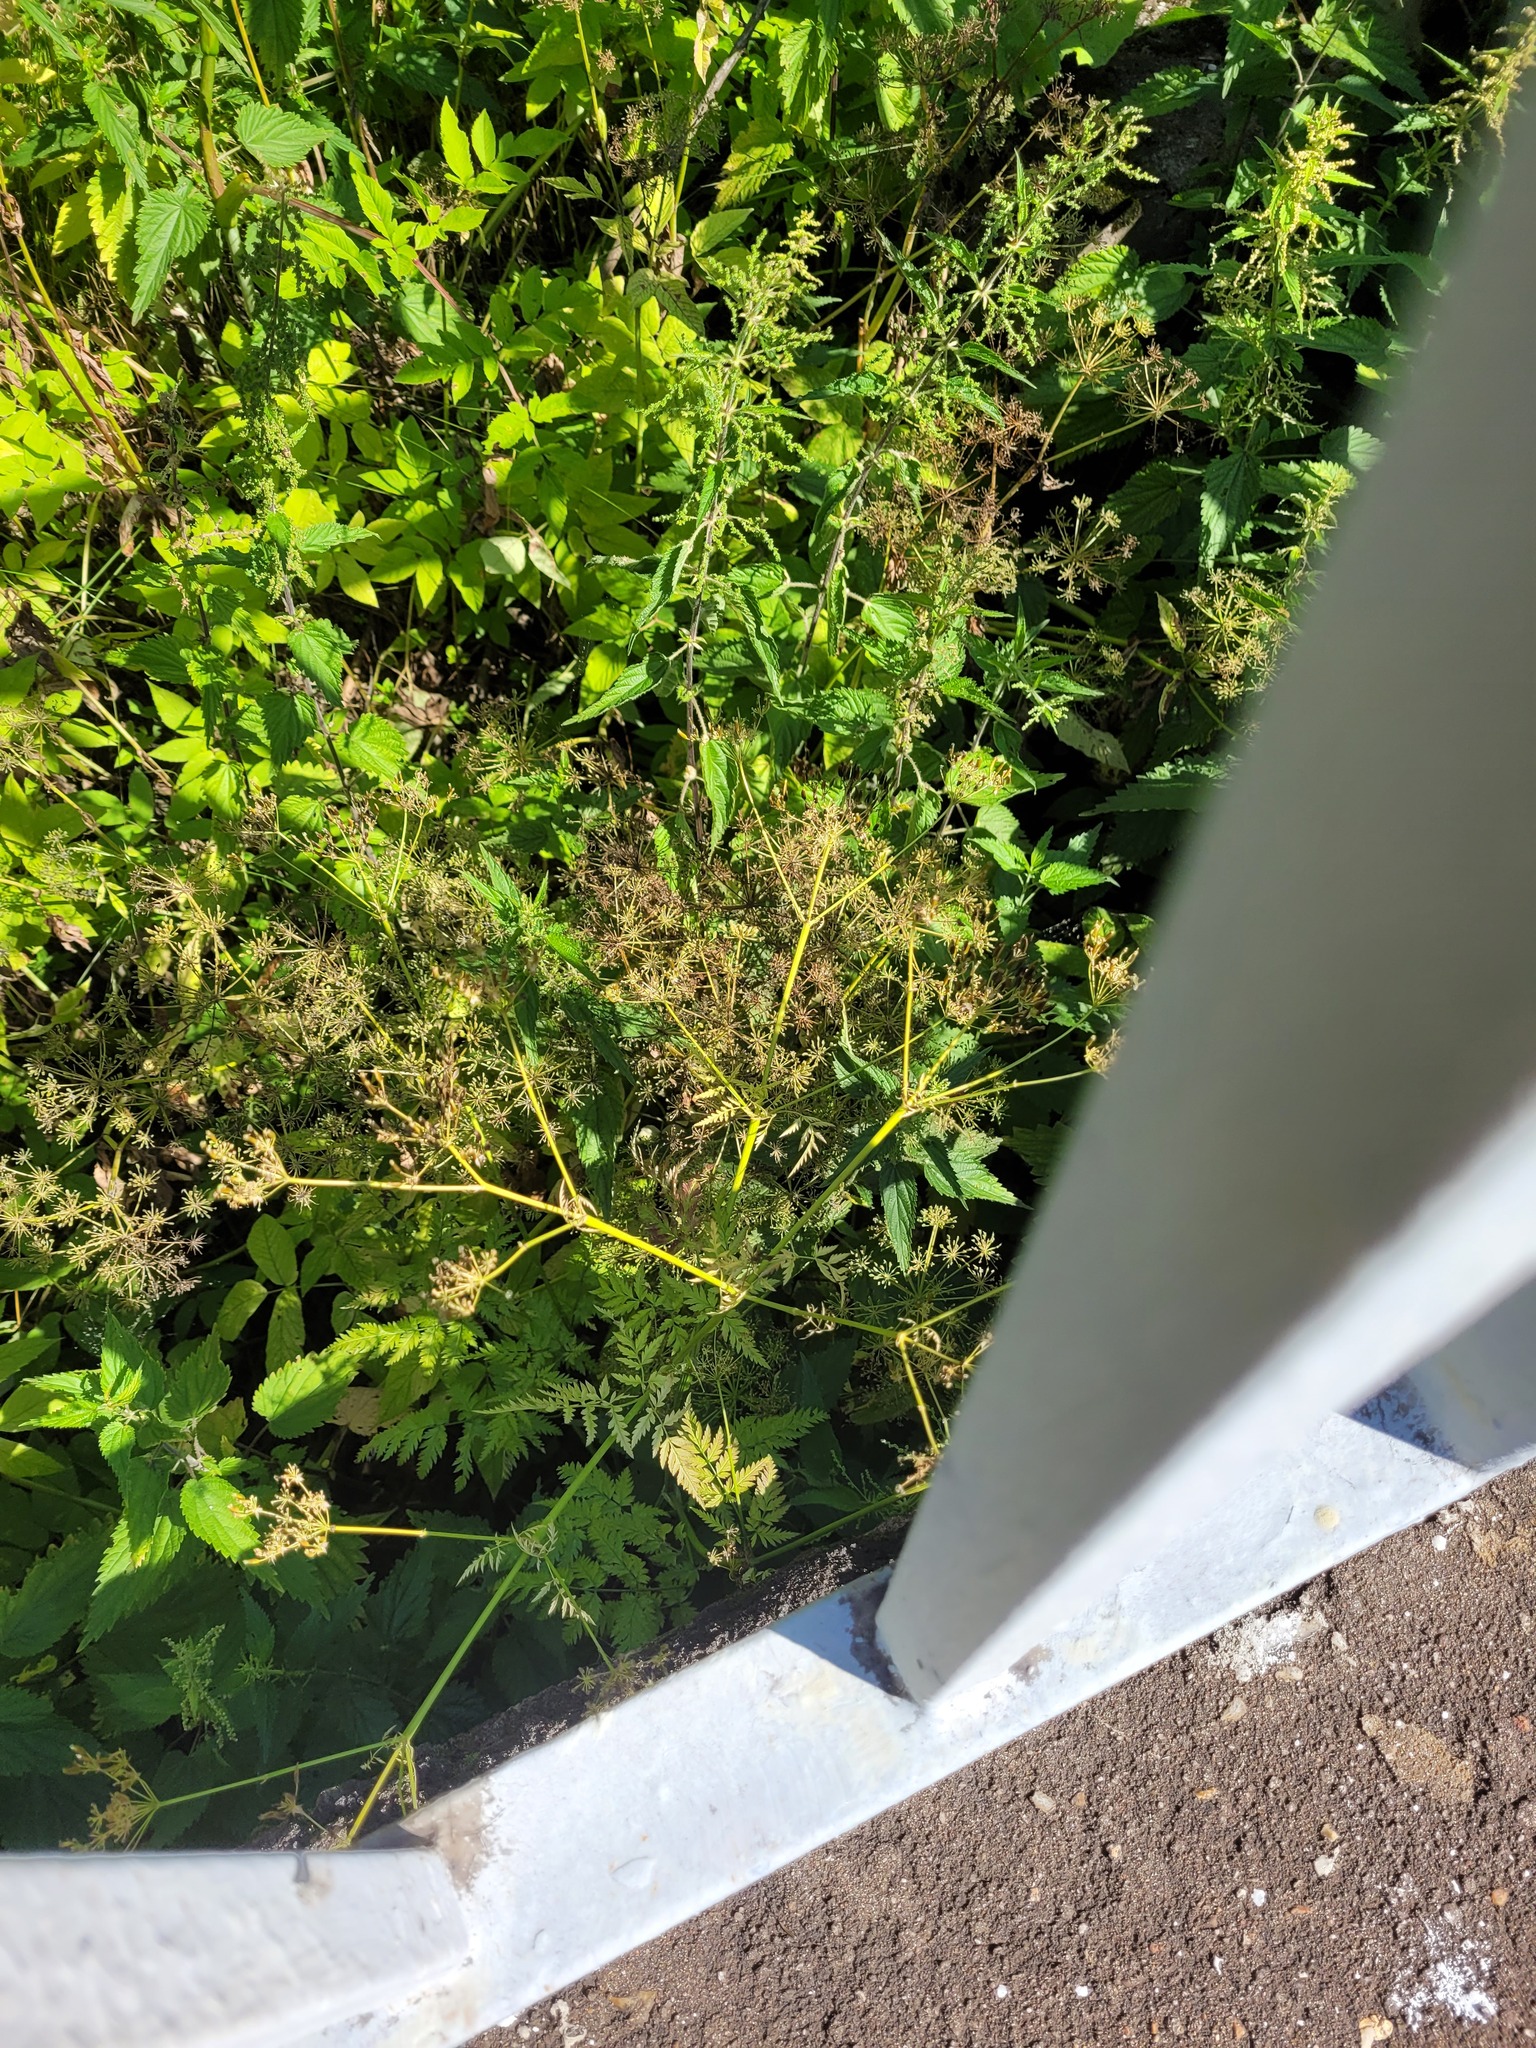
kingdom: Plantae
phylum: Tracheophyta
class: Magnoliopsida
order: Apiales
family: Apiaceae
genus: Anthriscus
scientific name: Anthriscus sylvestris
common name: Cow parsley
